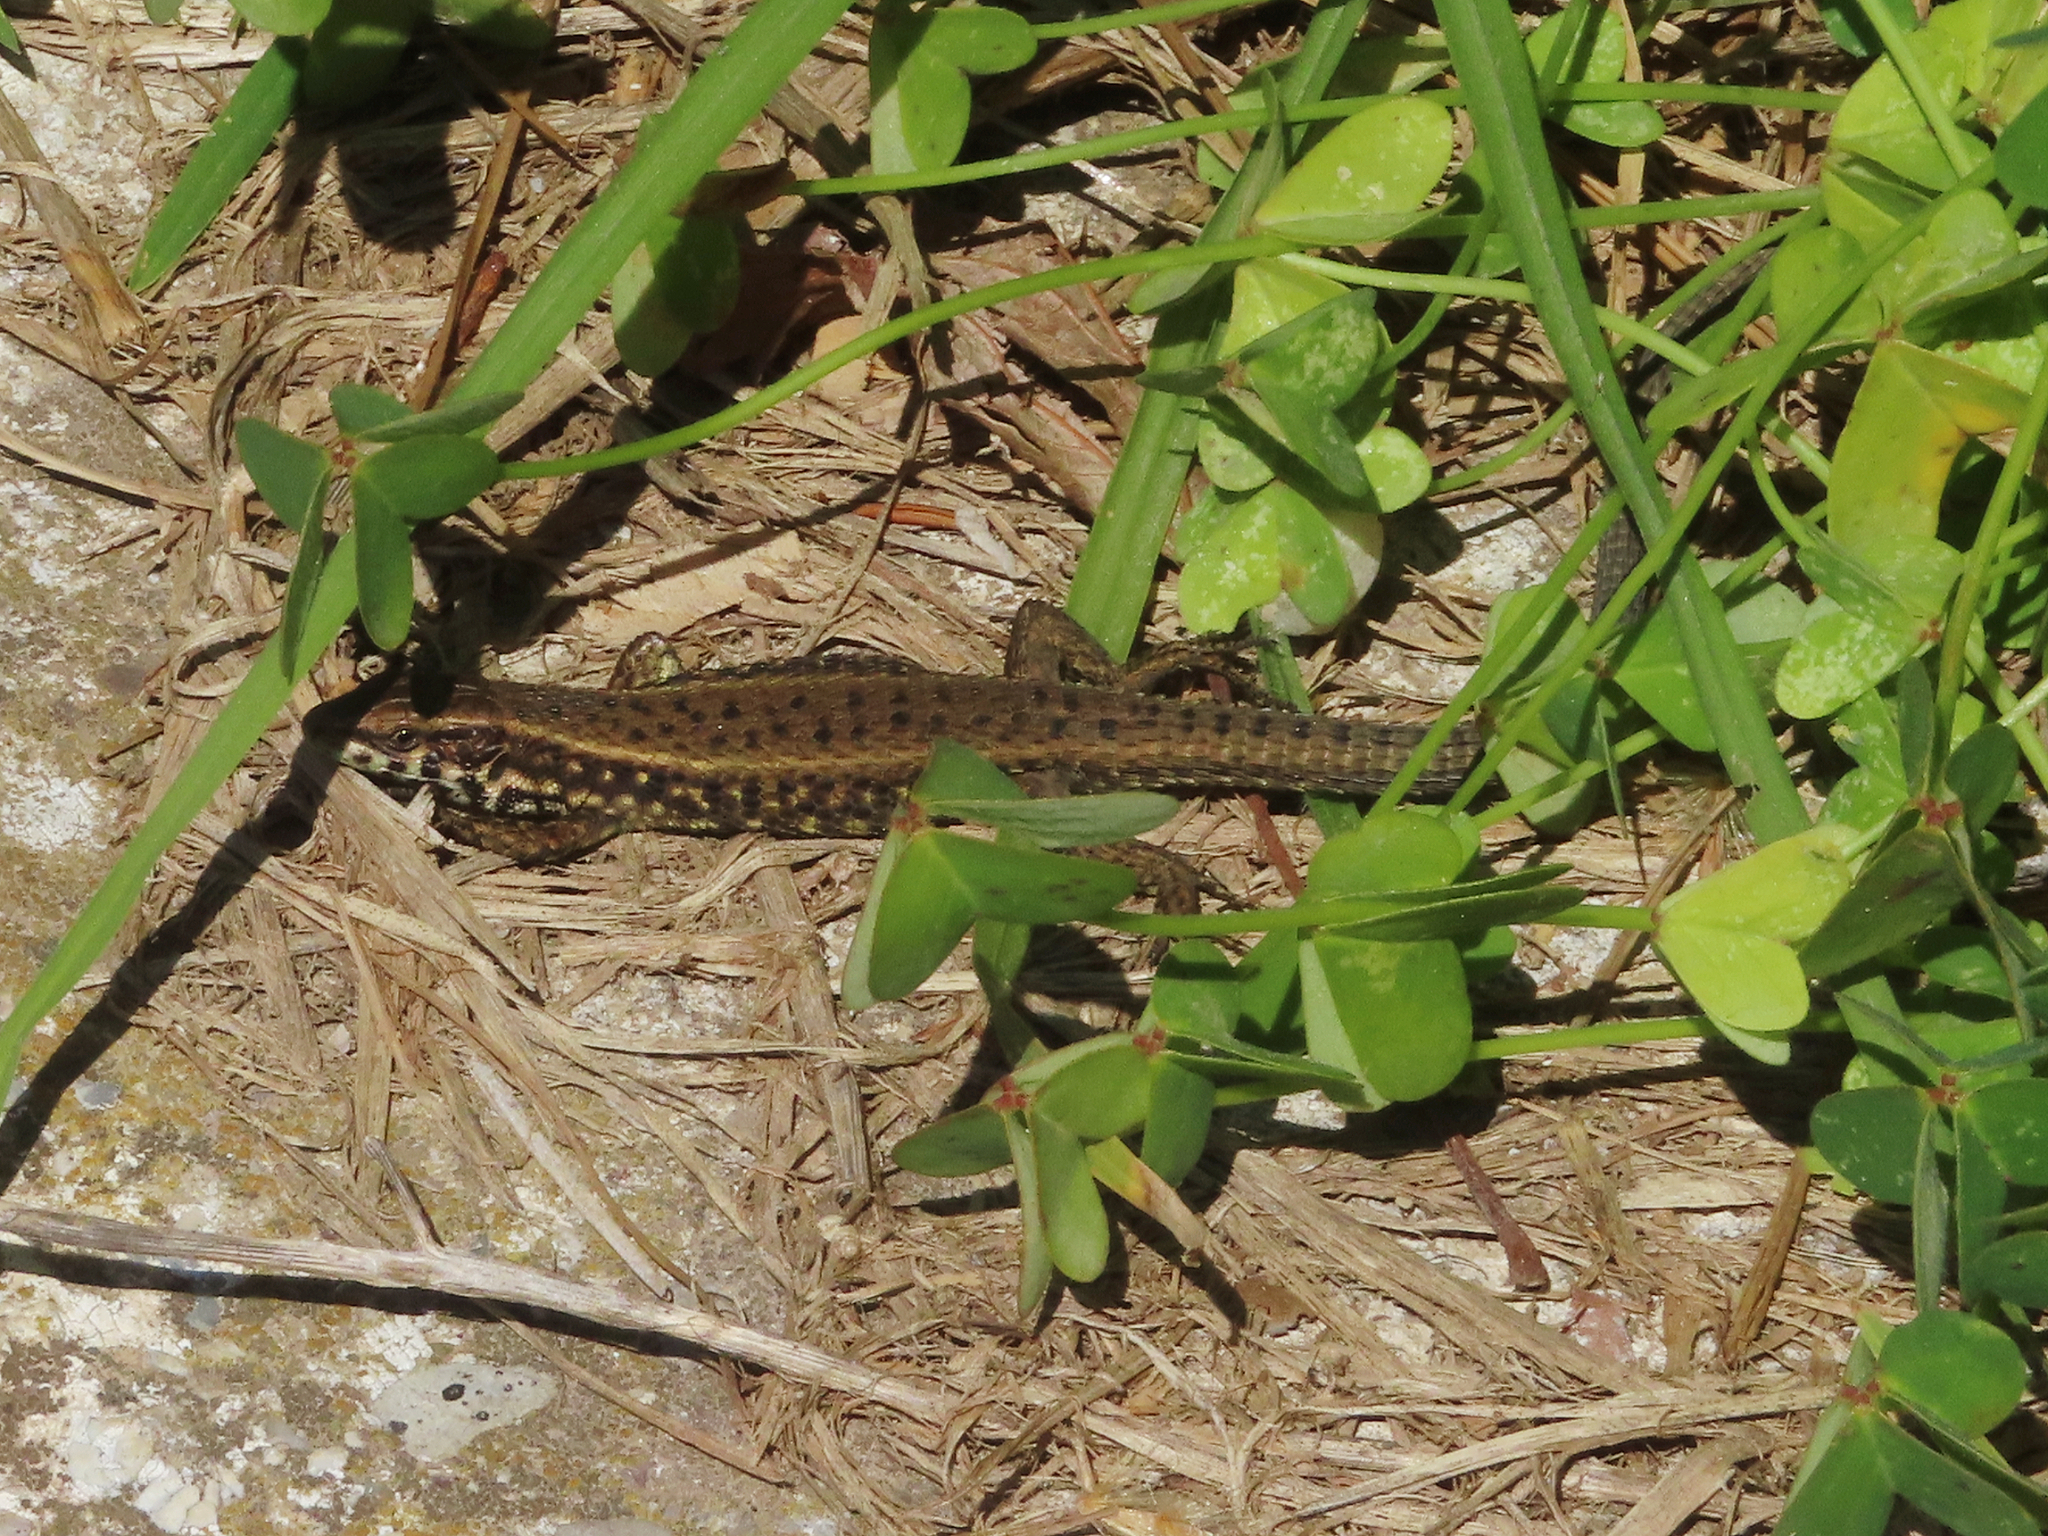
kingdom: Animalia
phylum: Chordata
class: Squamata
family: Lacertidae
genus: Algyroides
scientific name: Algyroides moreoticus
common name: Greek algyroides
